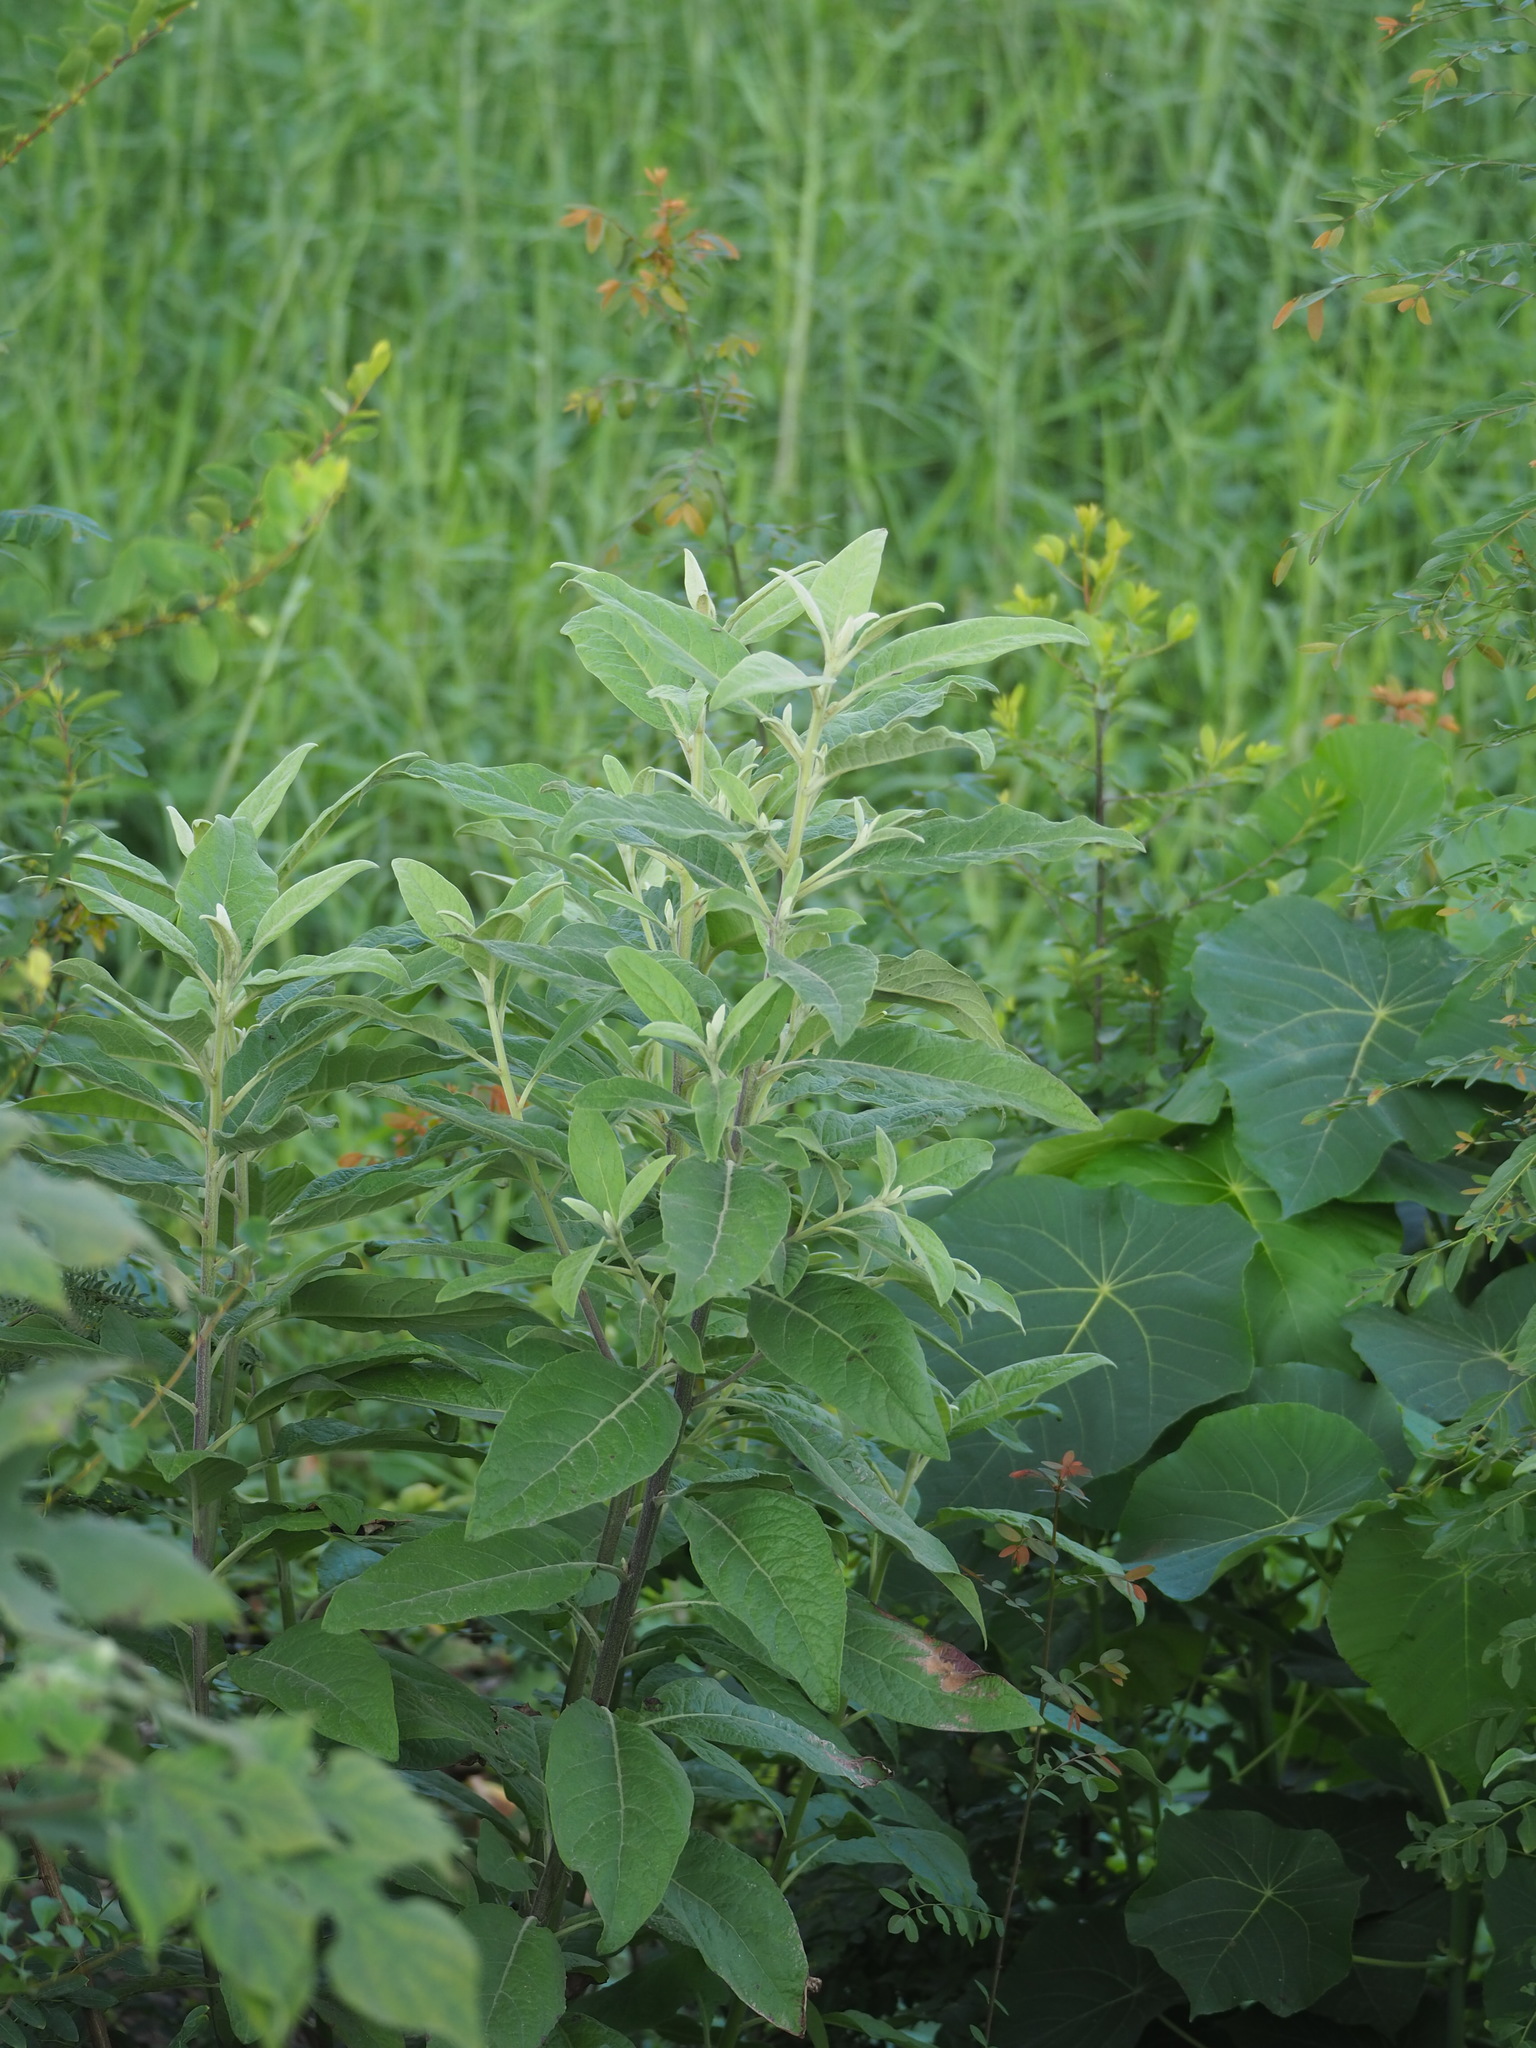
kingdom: Plantae
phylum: Tracheophyta
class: Magnoliopsida
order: Asterales
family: Asteraceae
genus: Pluchea
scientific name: Pluchea carolinensis
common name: Marsh fleabane
